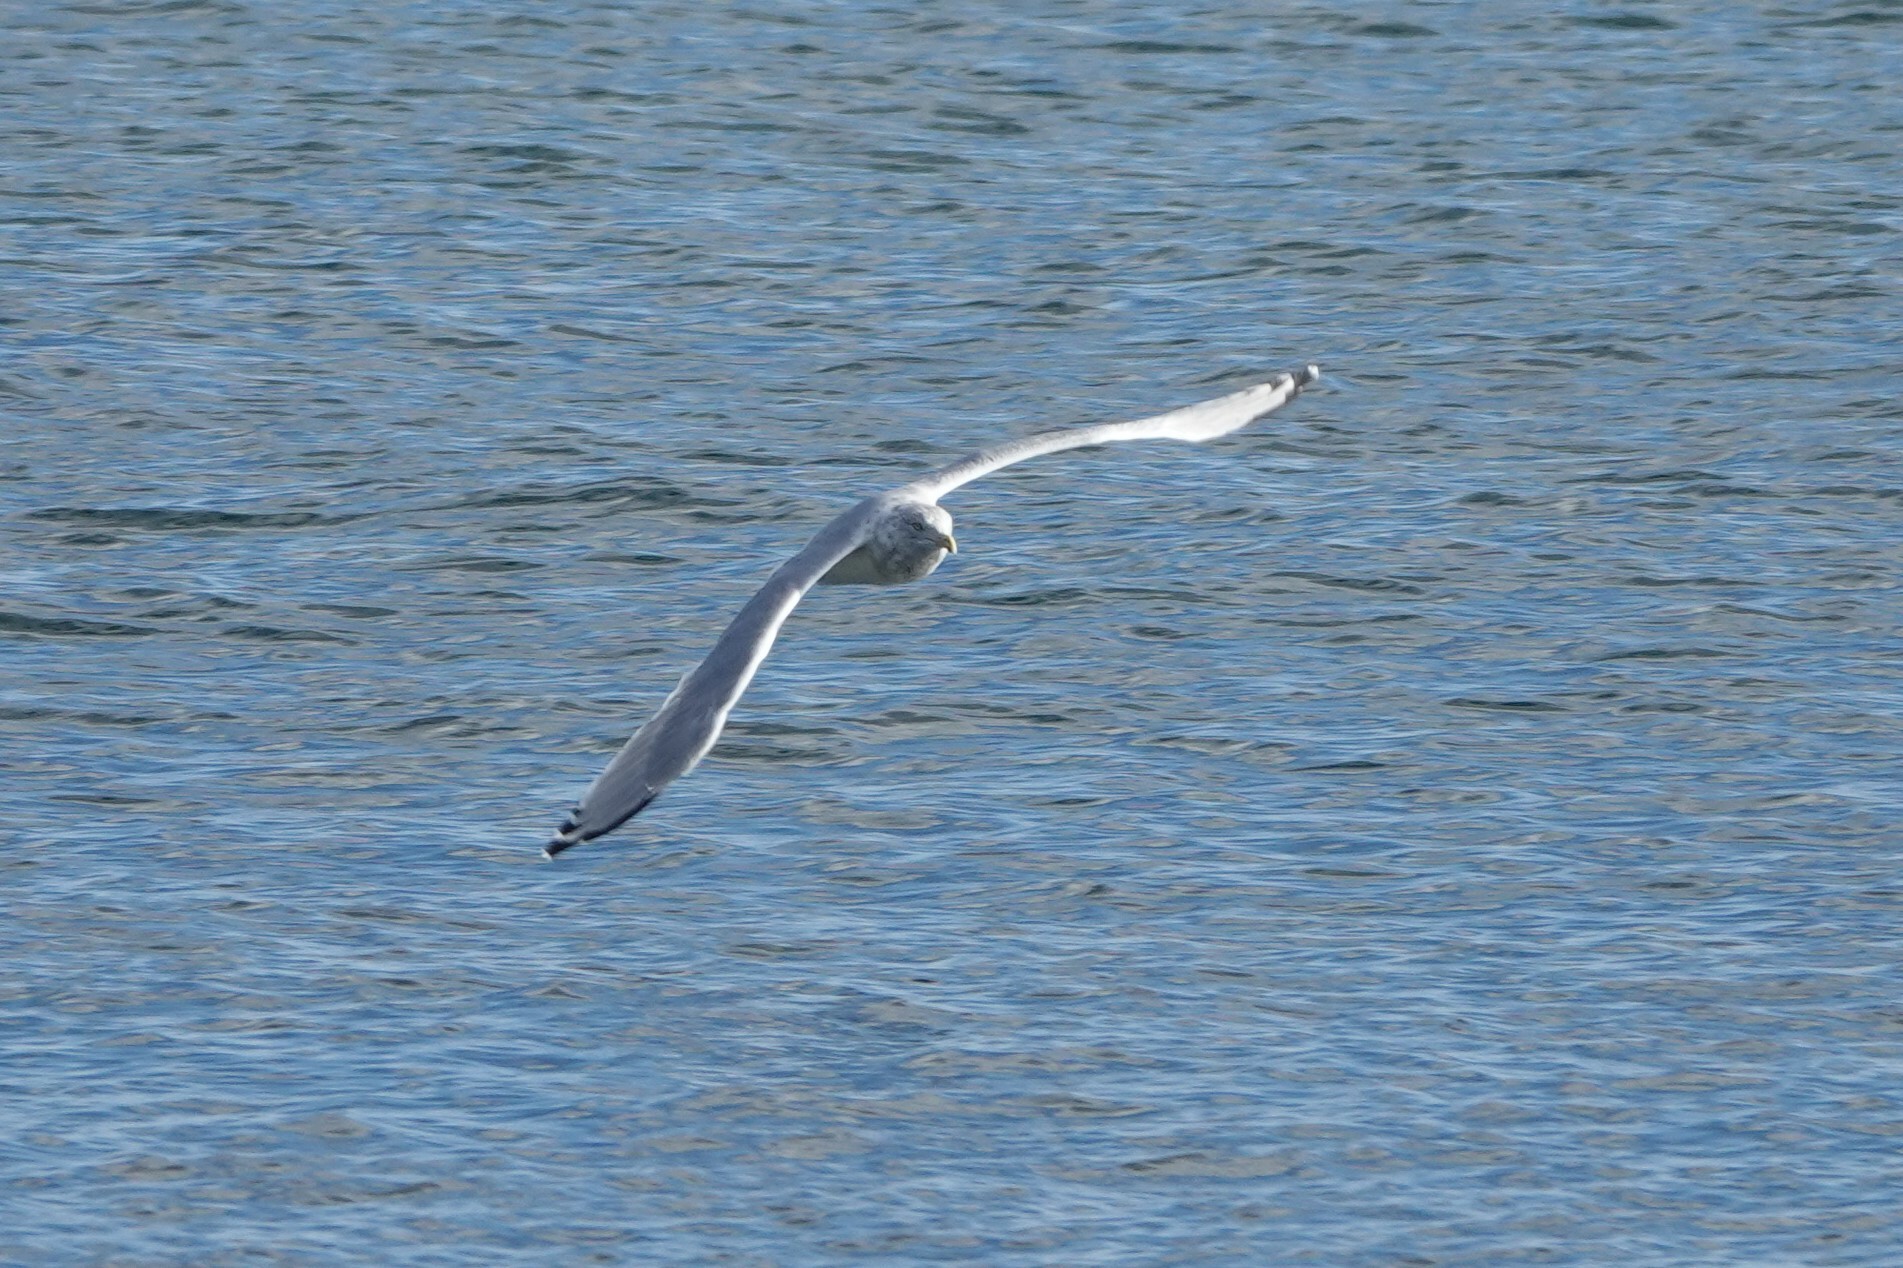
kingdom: Animalia
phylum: Chordata
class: Aves
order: Charadriiformes
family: Laridae
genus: Larus
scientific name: Larus argentatus
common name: Herring gull
